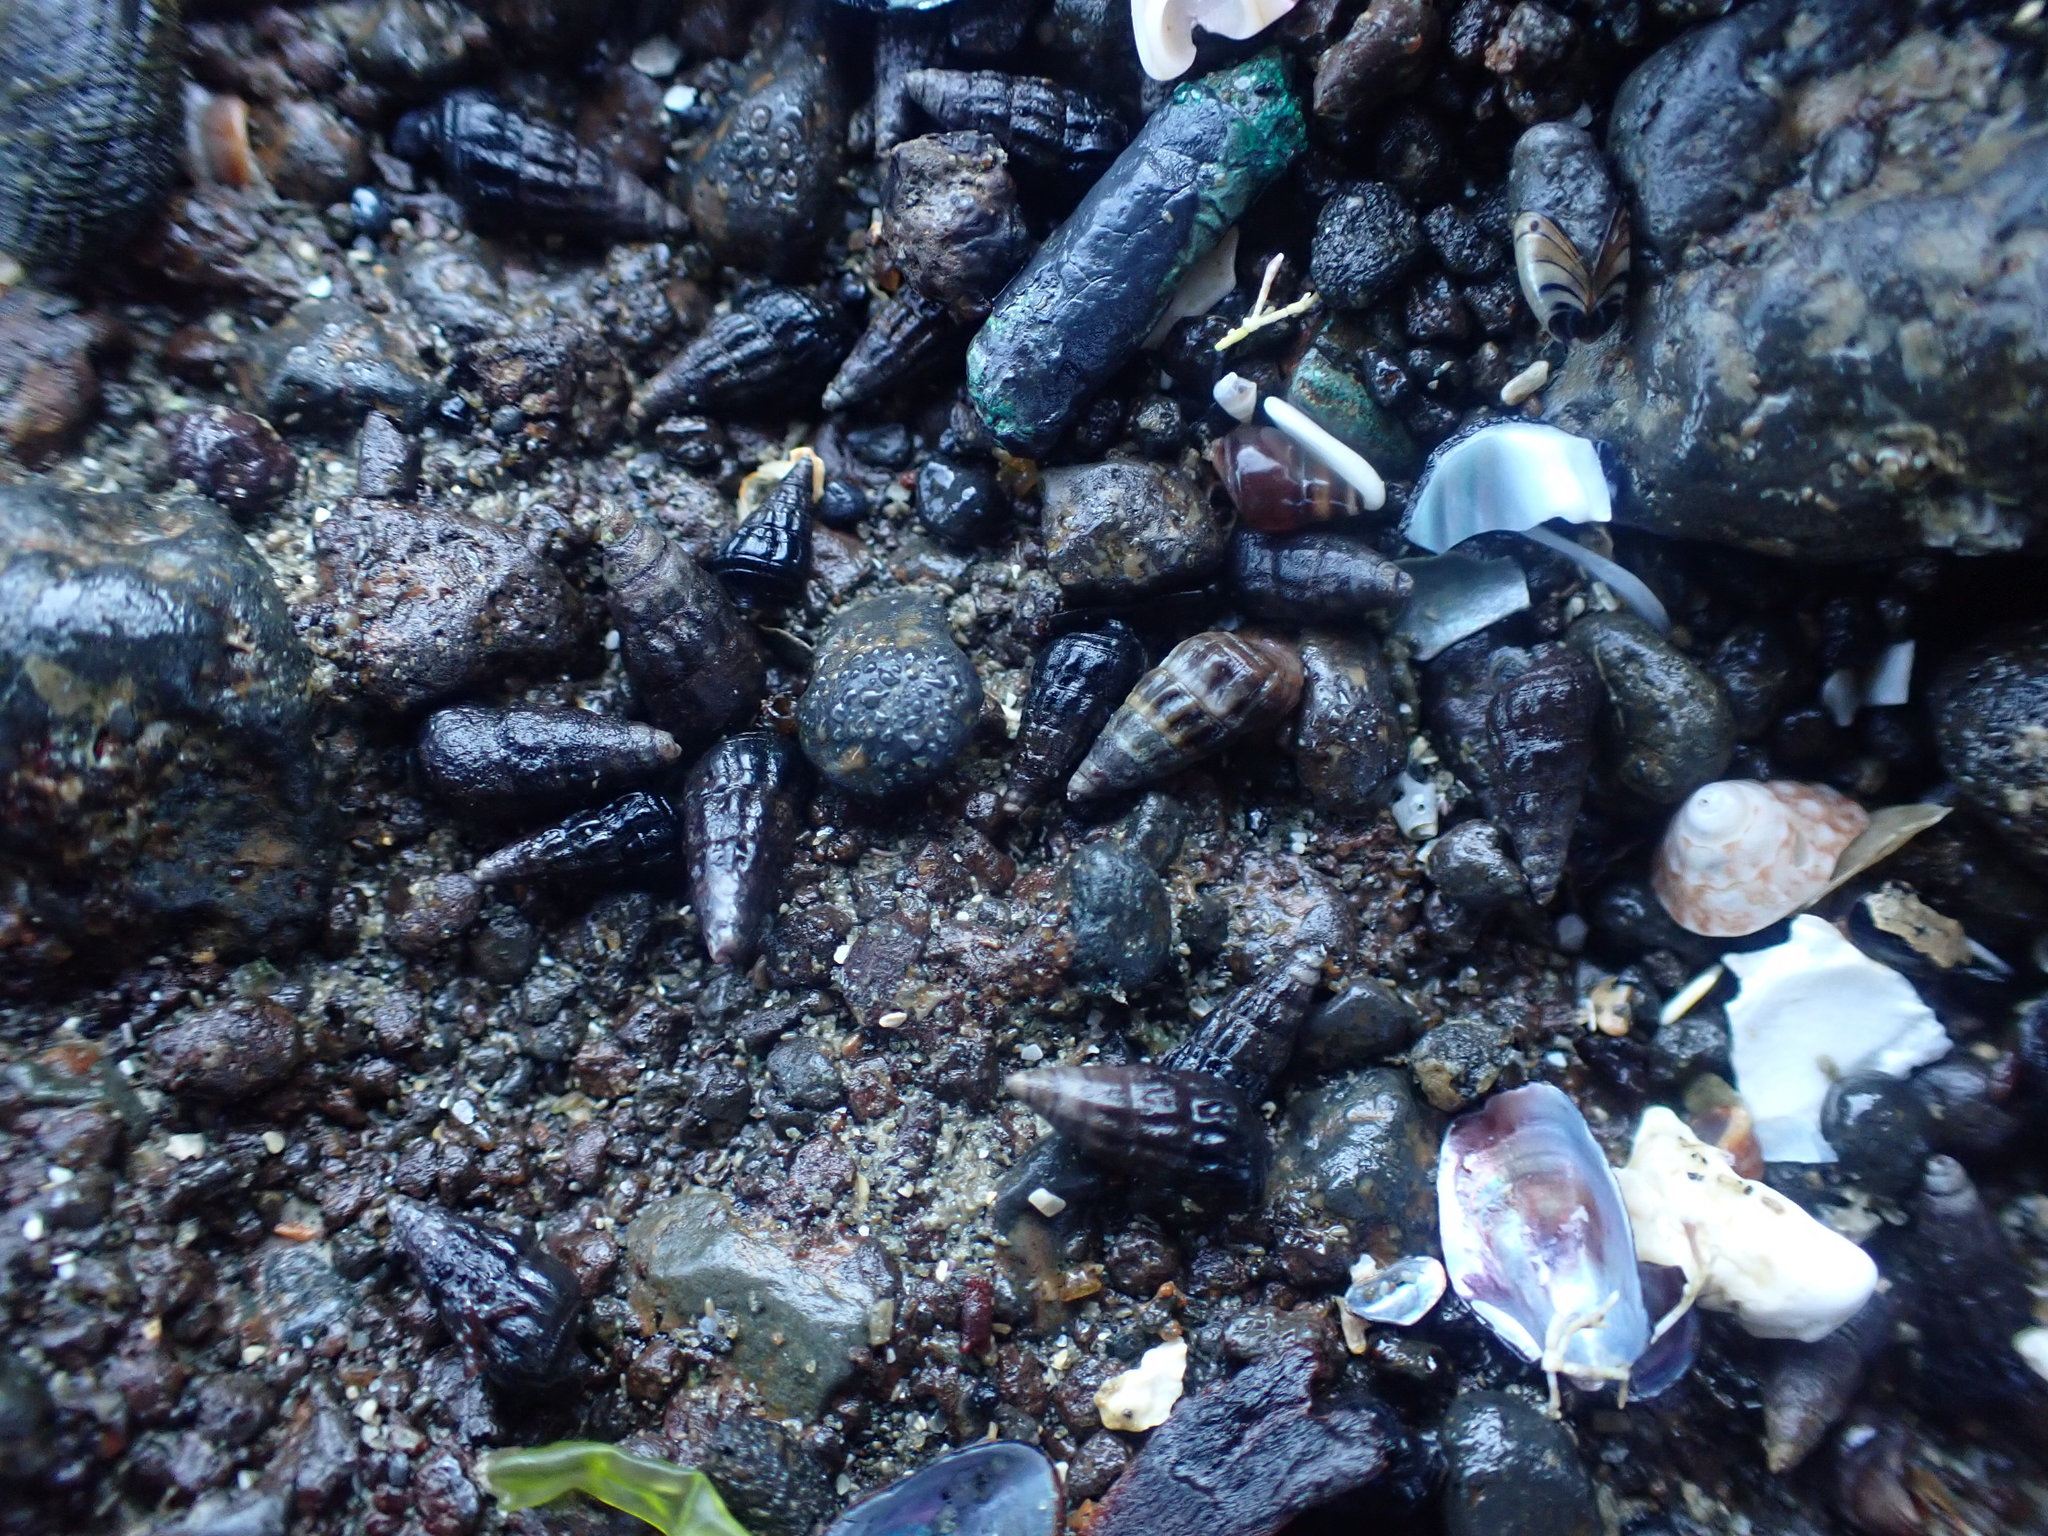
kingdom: Animalia
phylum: Mollusca
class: Gastropoda
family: Batillariidae
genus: Zeacumantus
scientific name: Zeacumantus subcarinatus
